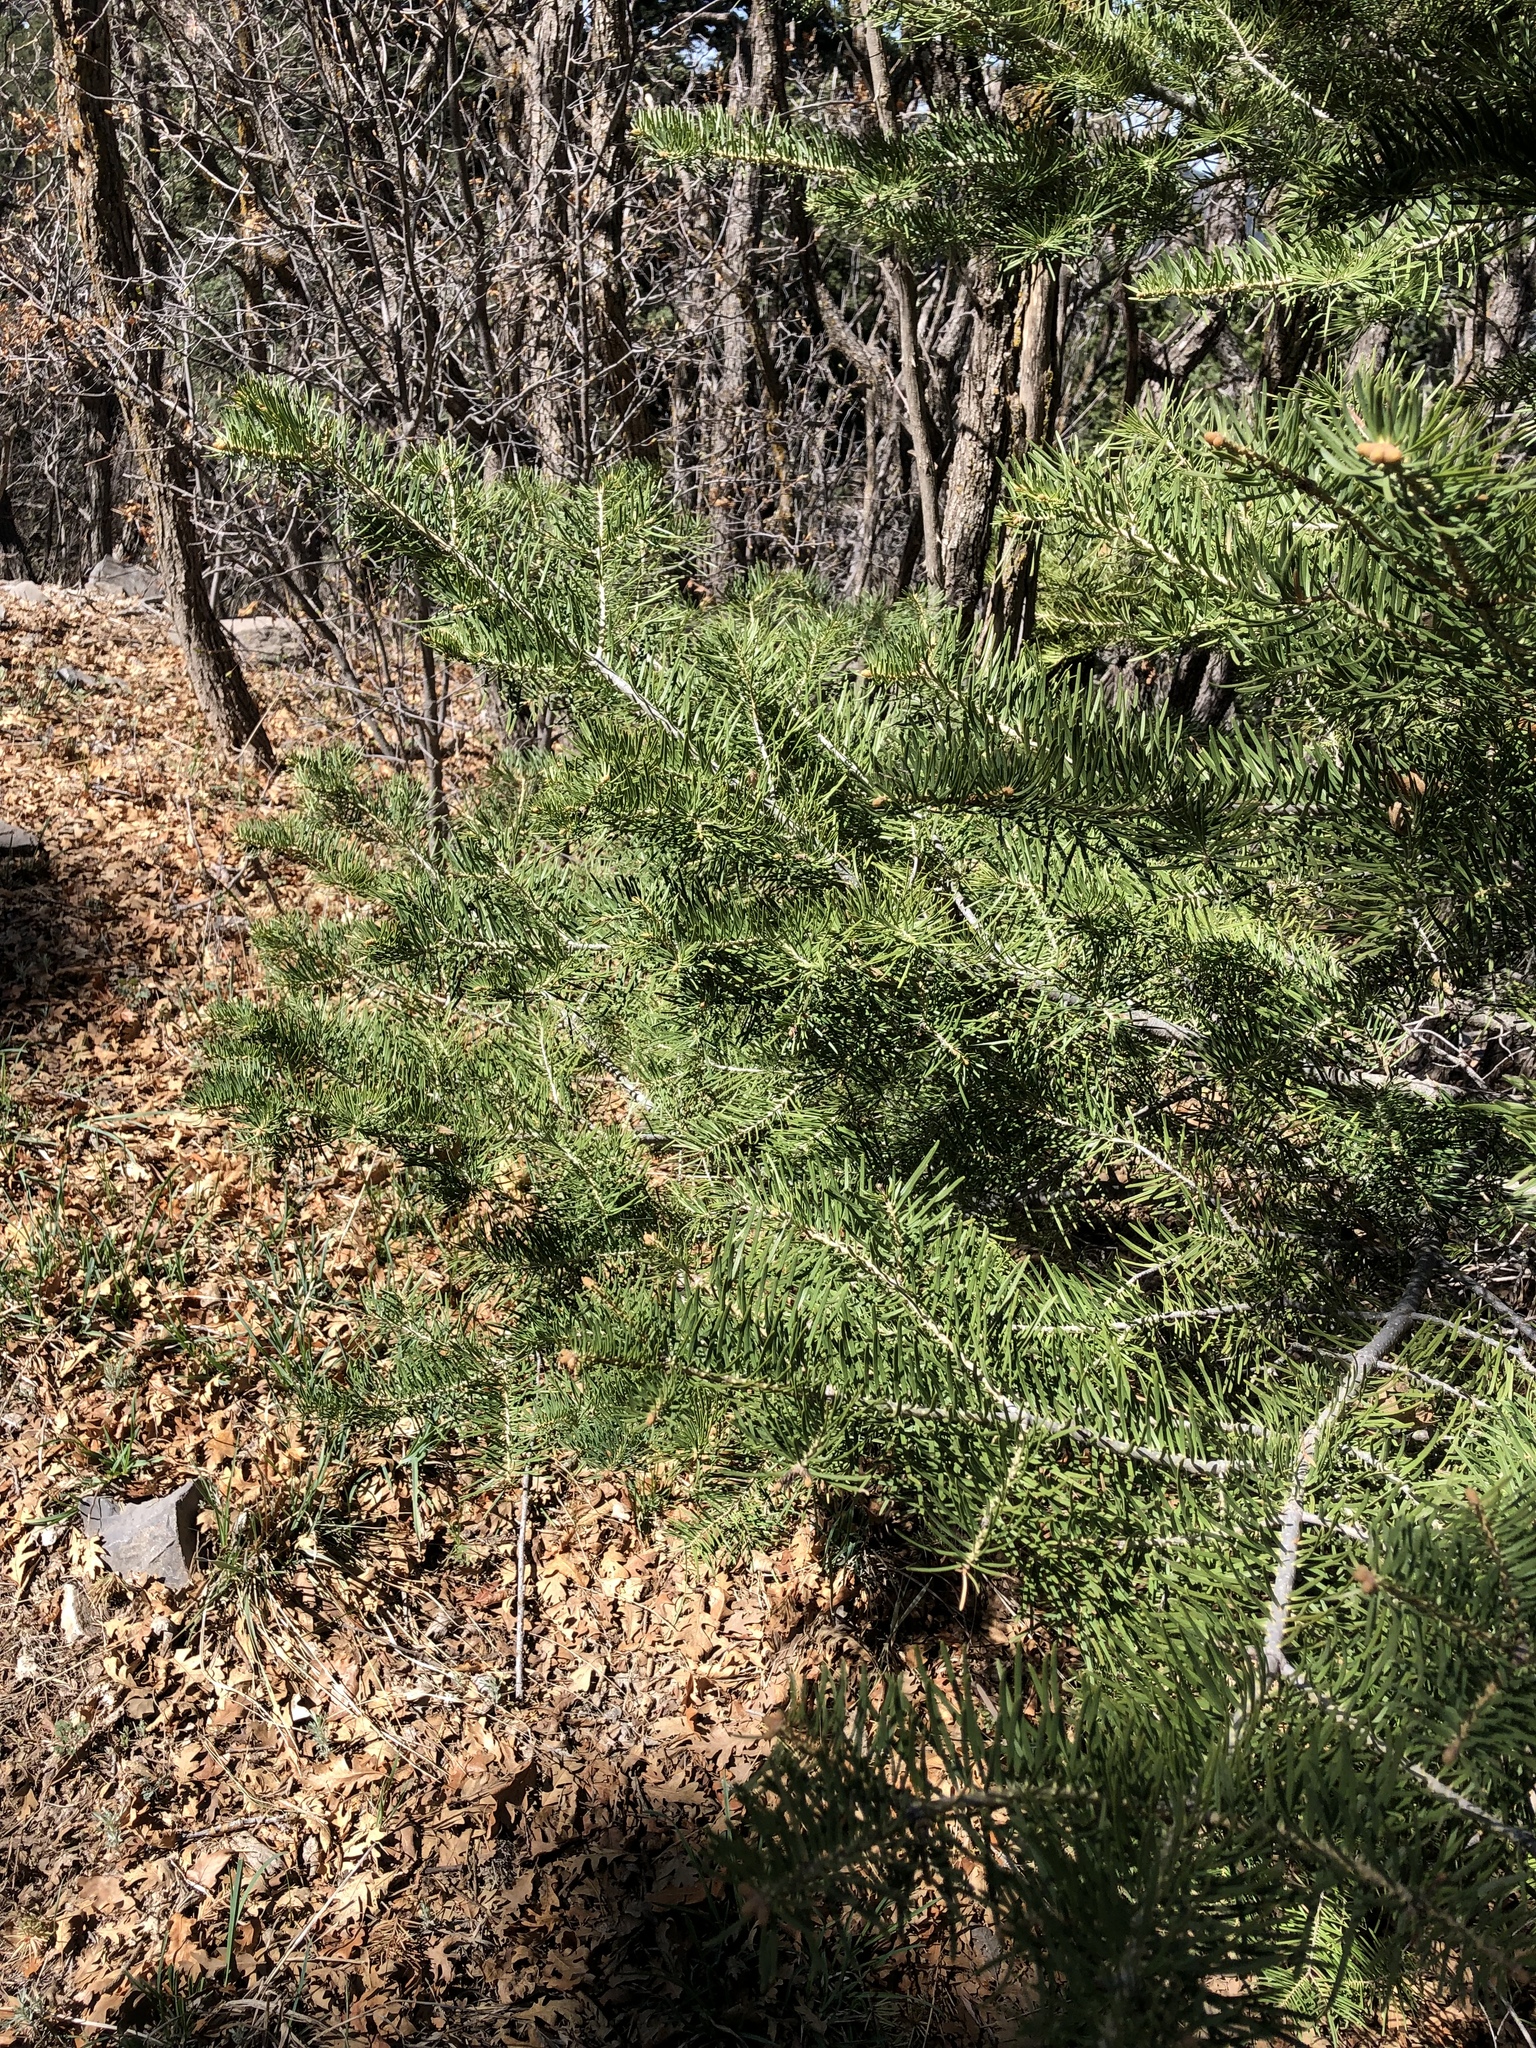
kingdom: Plantae
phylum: Tracheophyta
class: Pinopsida
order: Pinales
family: Pinaceae
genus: Abies
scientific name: Abies concolor
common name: Colorado fir
